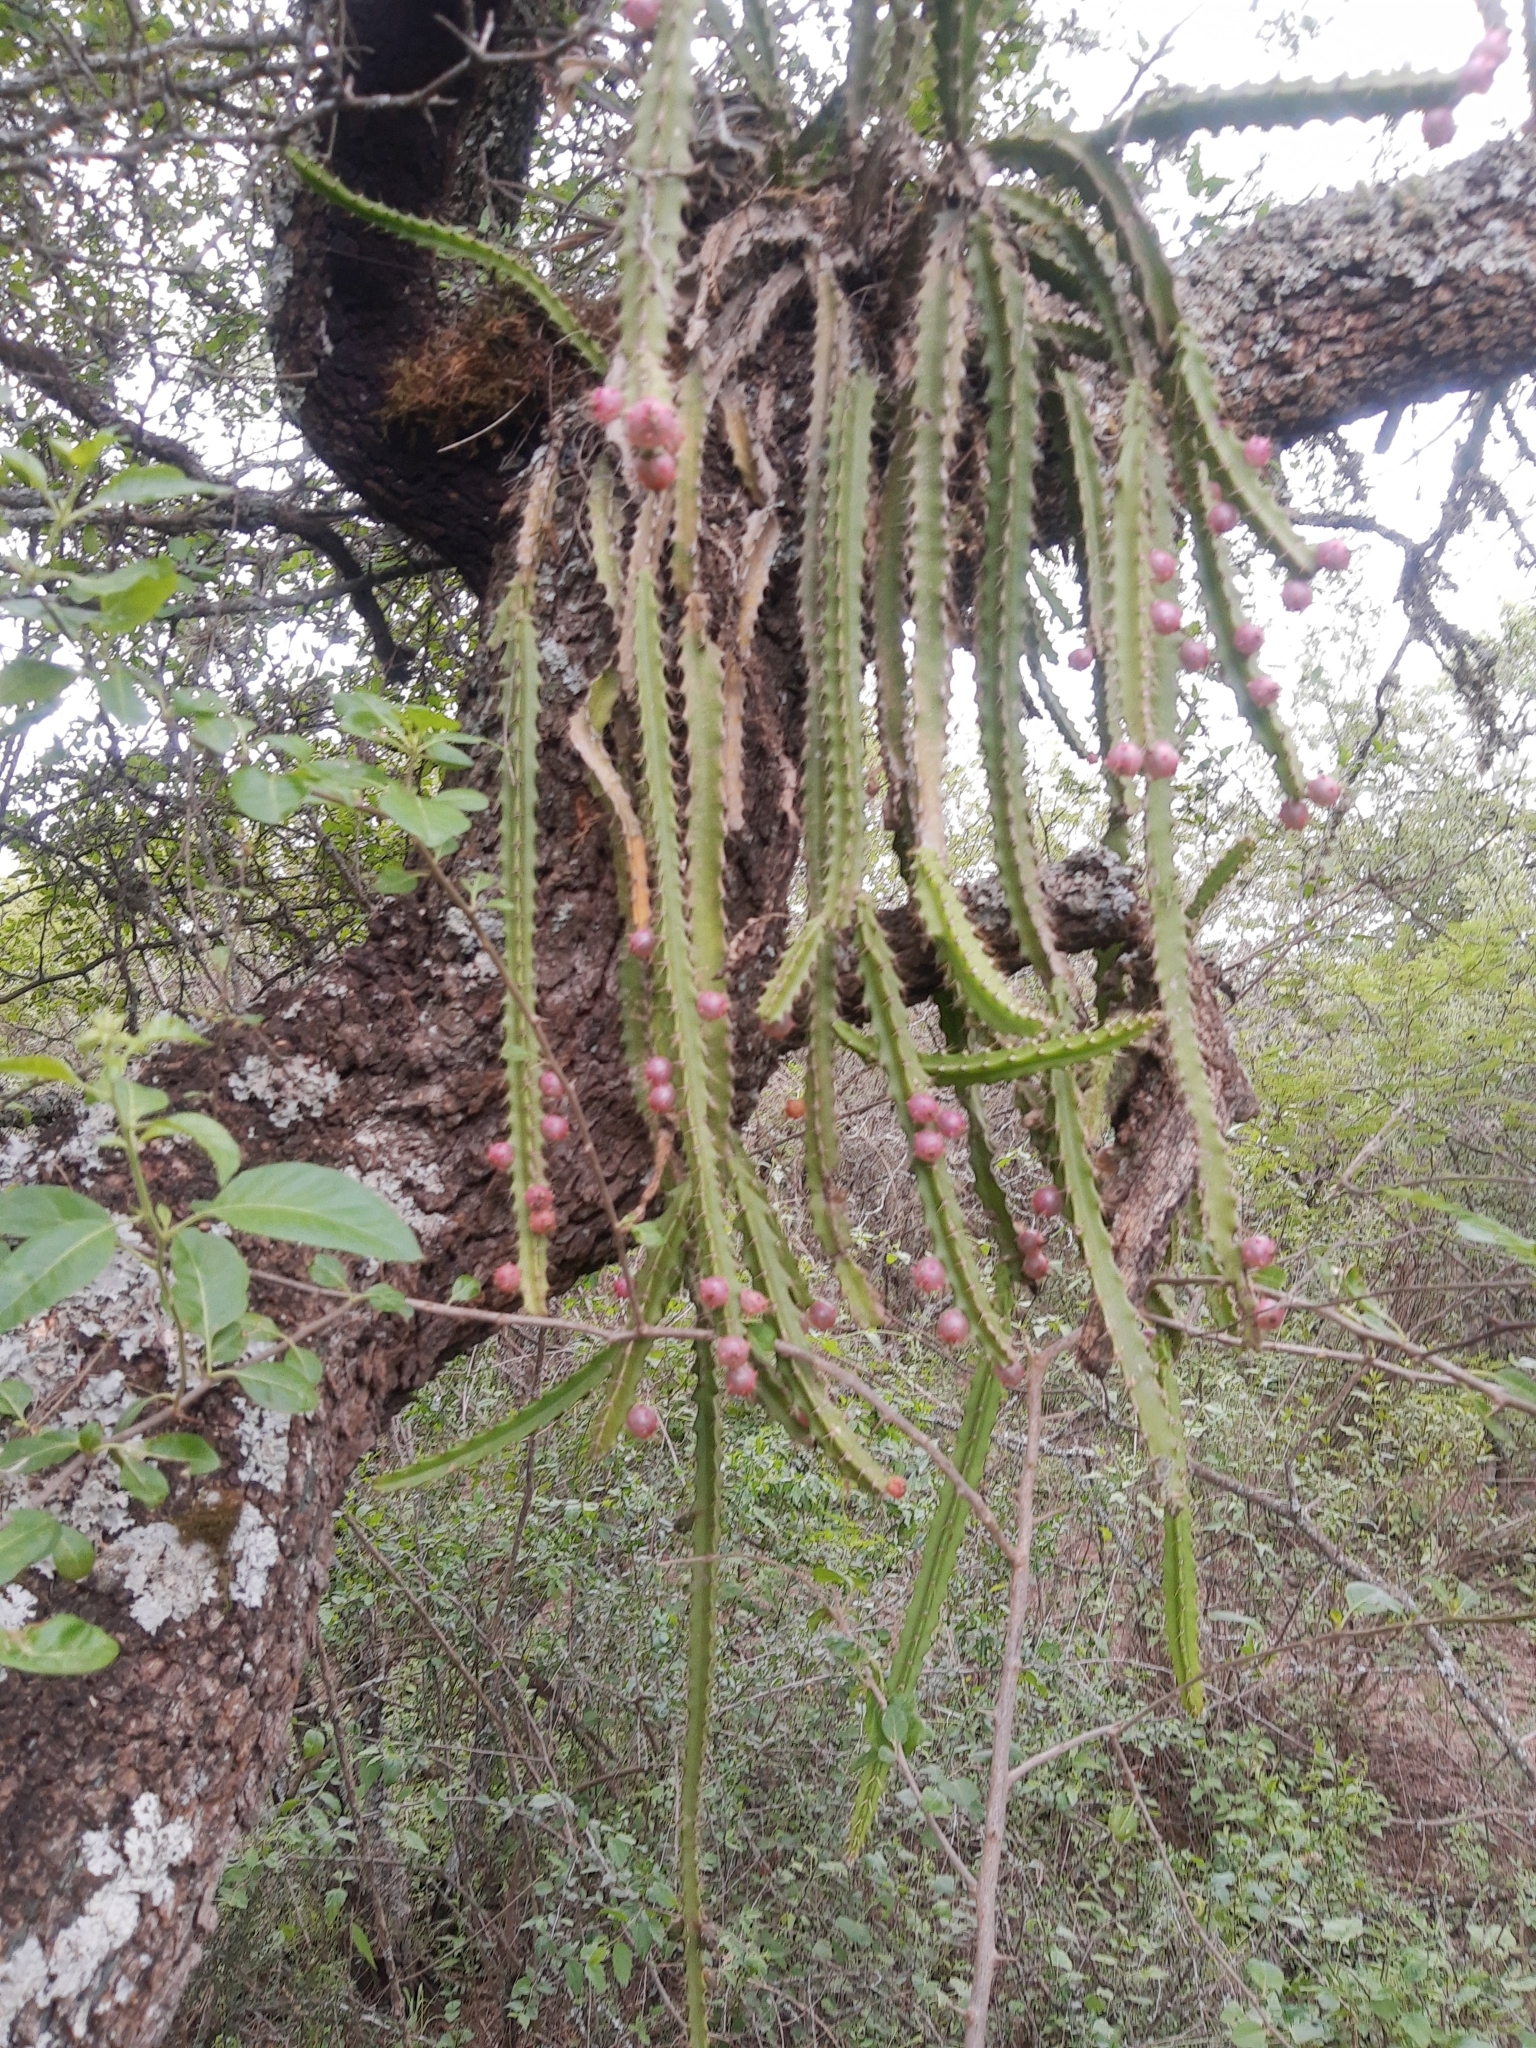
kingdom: Plantae
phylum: Tracheophyta
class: Magnoliopsida
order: Caryophyllales
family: Cactaceae
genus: Pfeiffera
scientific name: Pfeiffera ianthothele
